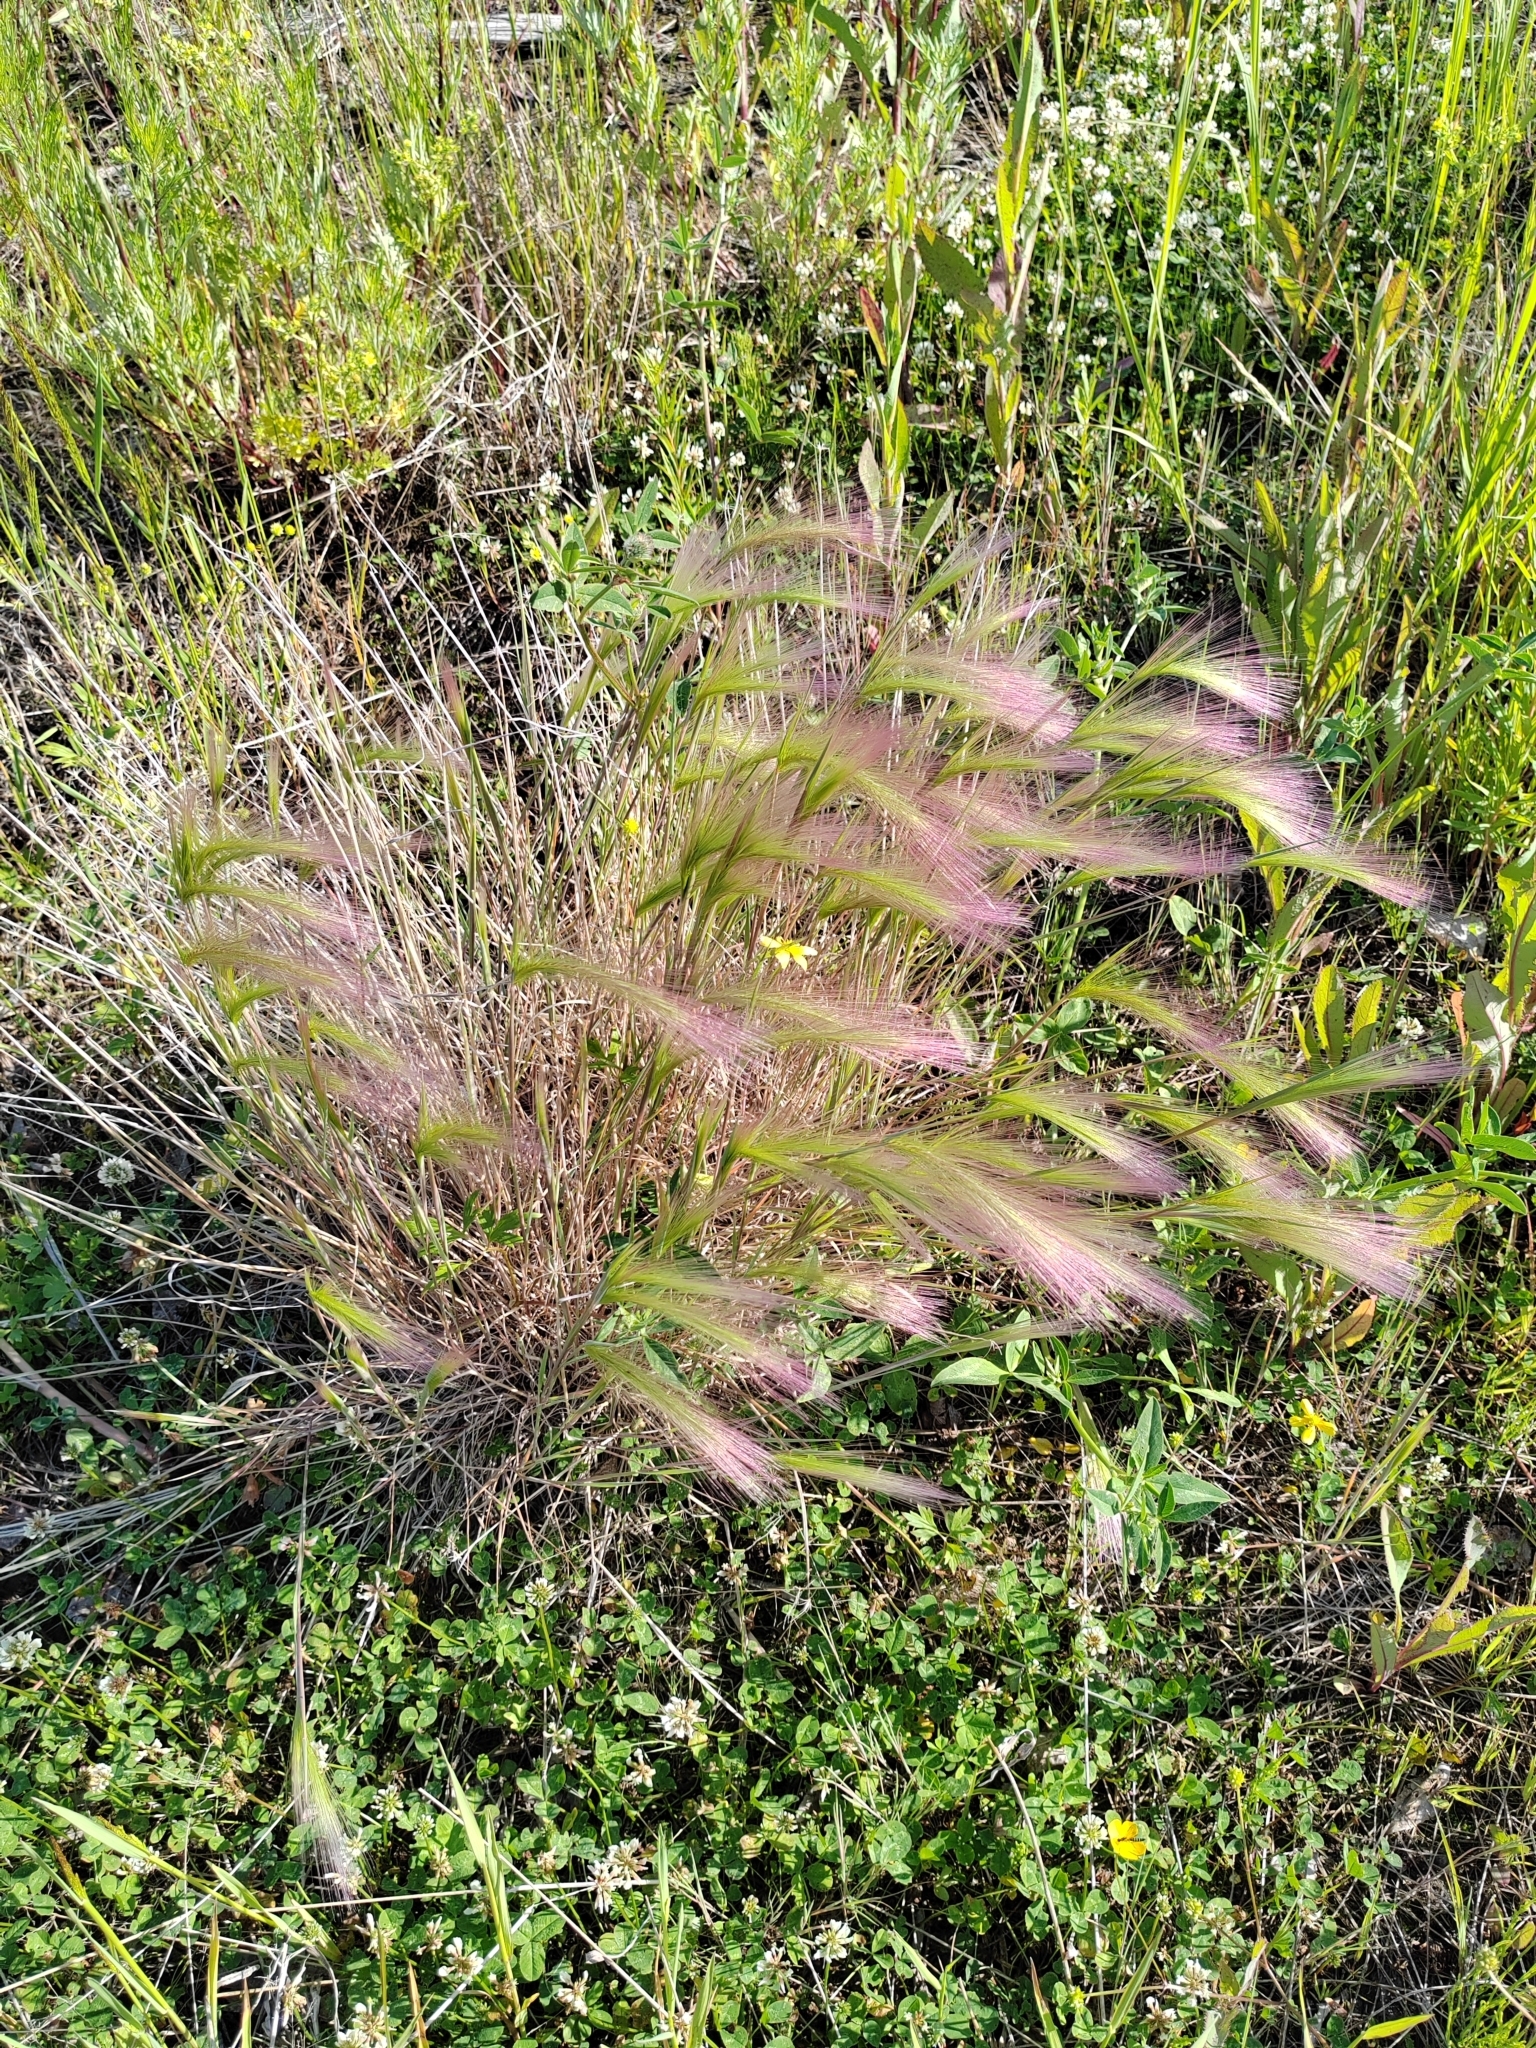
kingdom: Plantae
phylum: Tracheophyta
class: Liliopsida
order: Poales
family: Poaceae
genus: Hordeum
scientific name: Hordeum jubatum
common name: Foxtail barley
